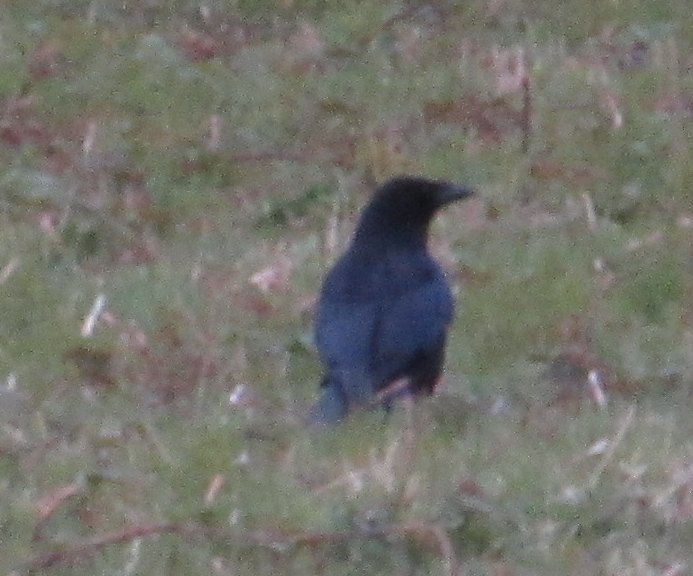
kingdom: Animalia
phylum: Chordata
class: Aves
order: Passeriformes
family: Corvidae
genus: Corvus
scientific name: Corvus corone
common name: Carrion crow
